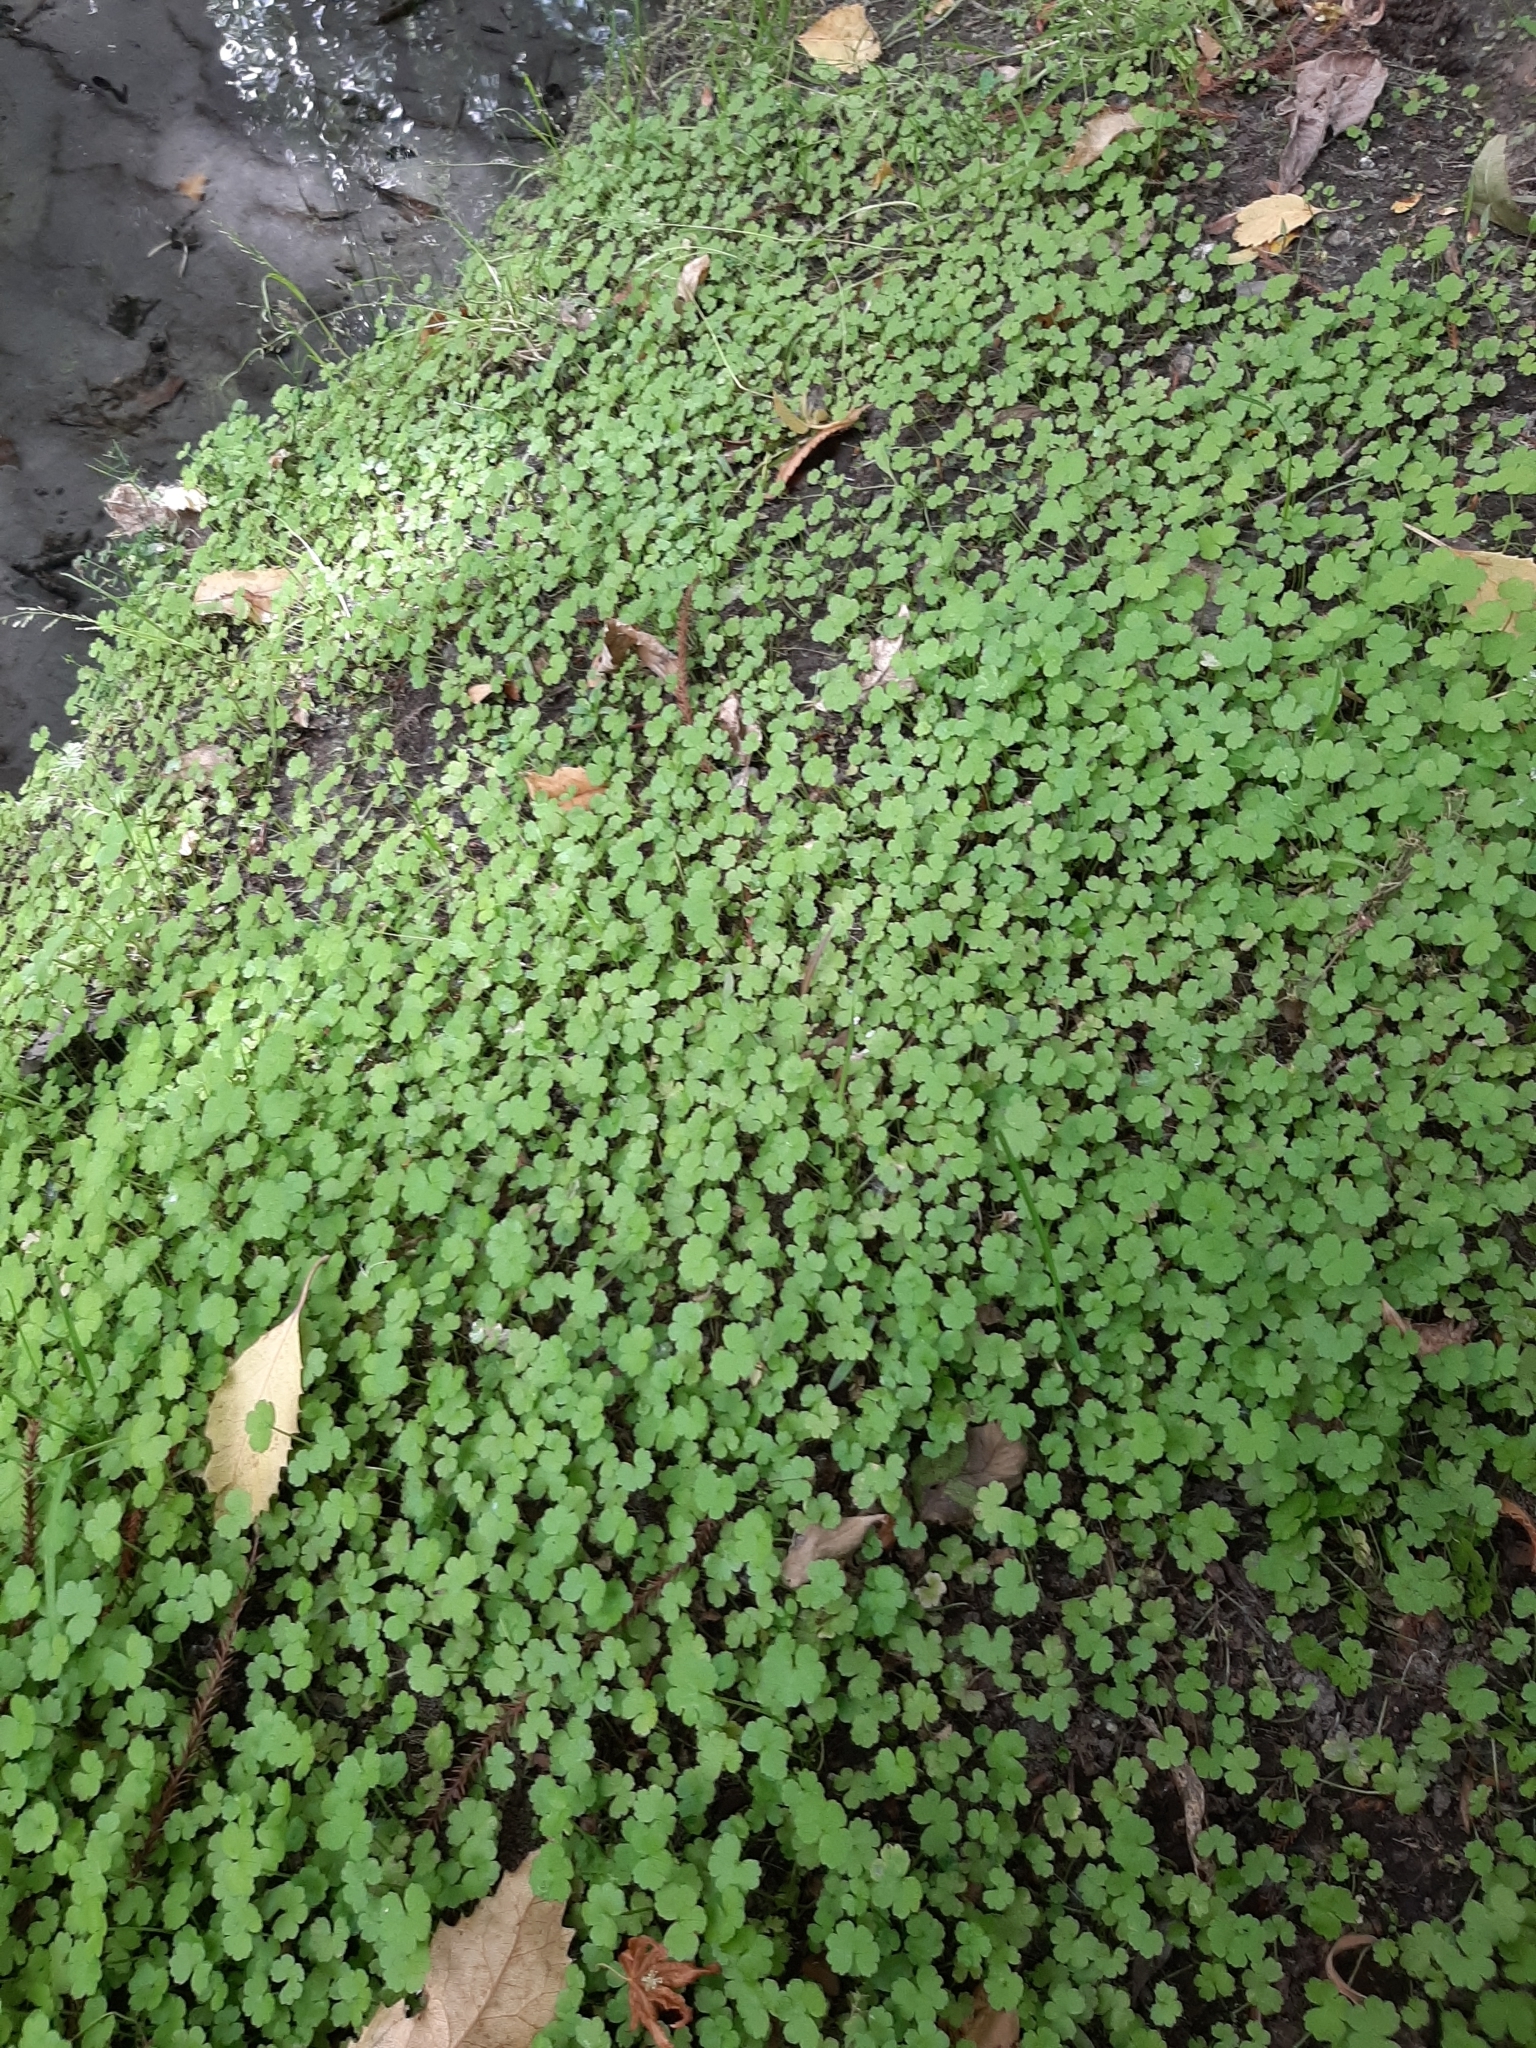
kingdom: Plantae
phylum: Tracheophyta
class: Magnoliopsida
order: Apiales
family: Araliaceae
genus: Hydrocotyle
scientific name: Hydrocotyle heteromeria
